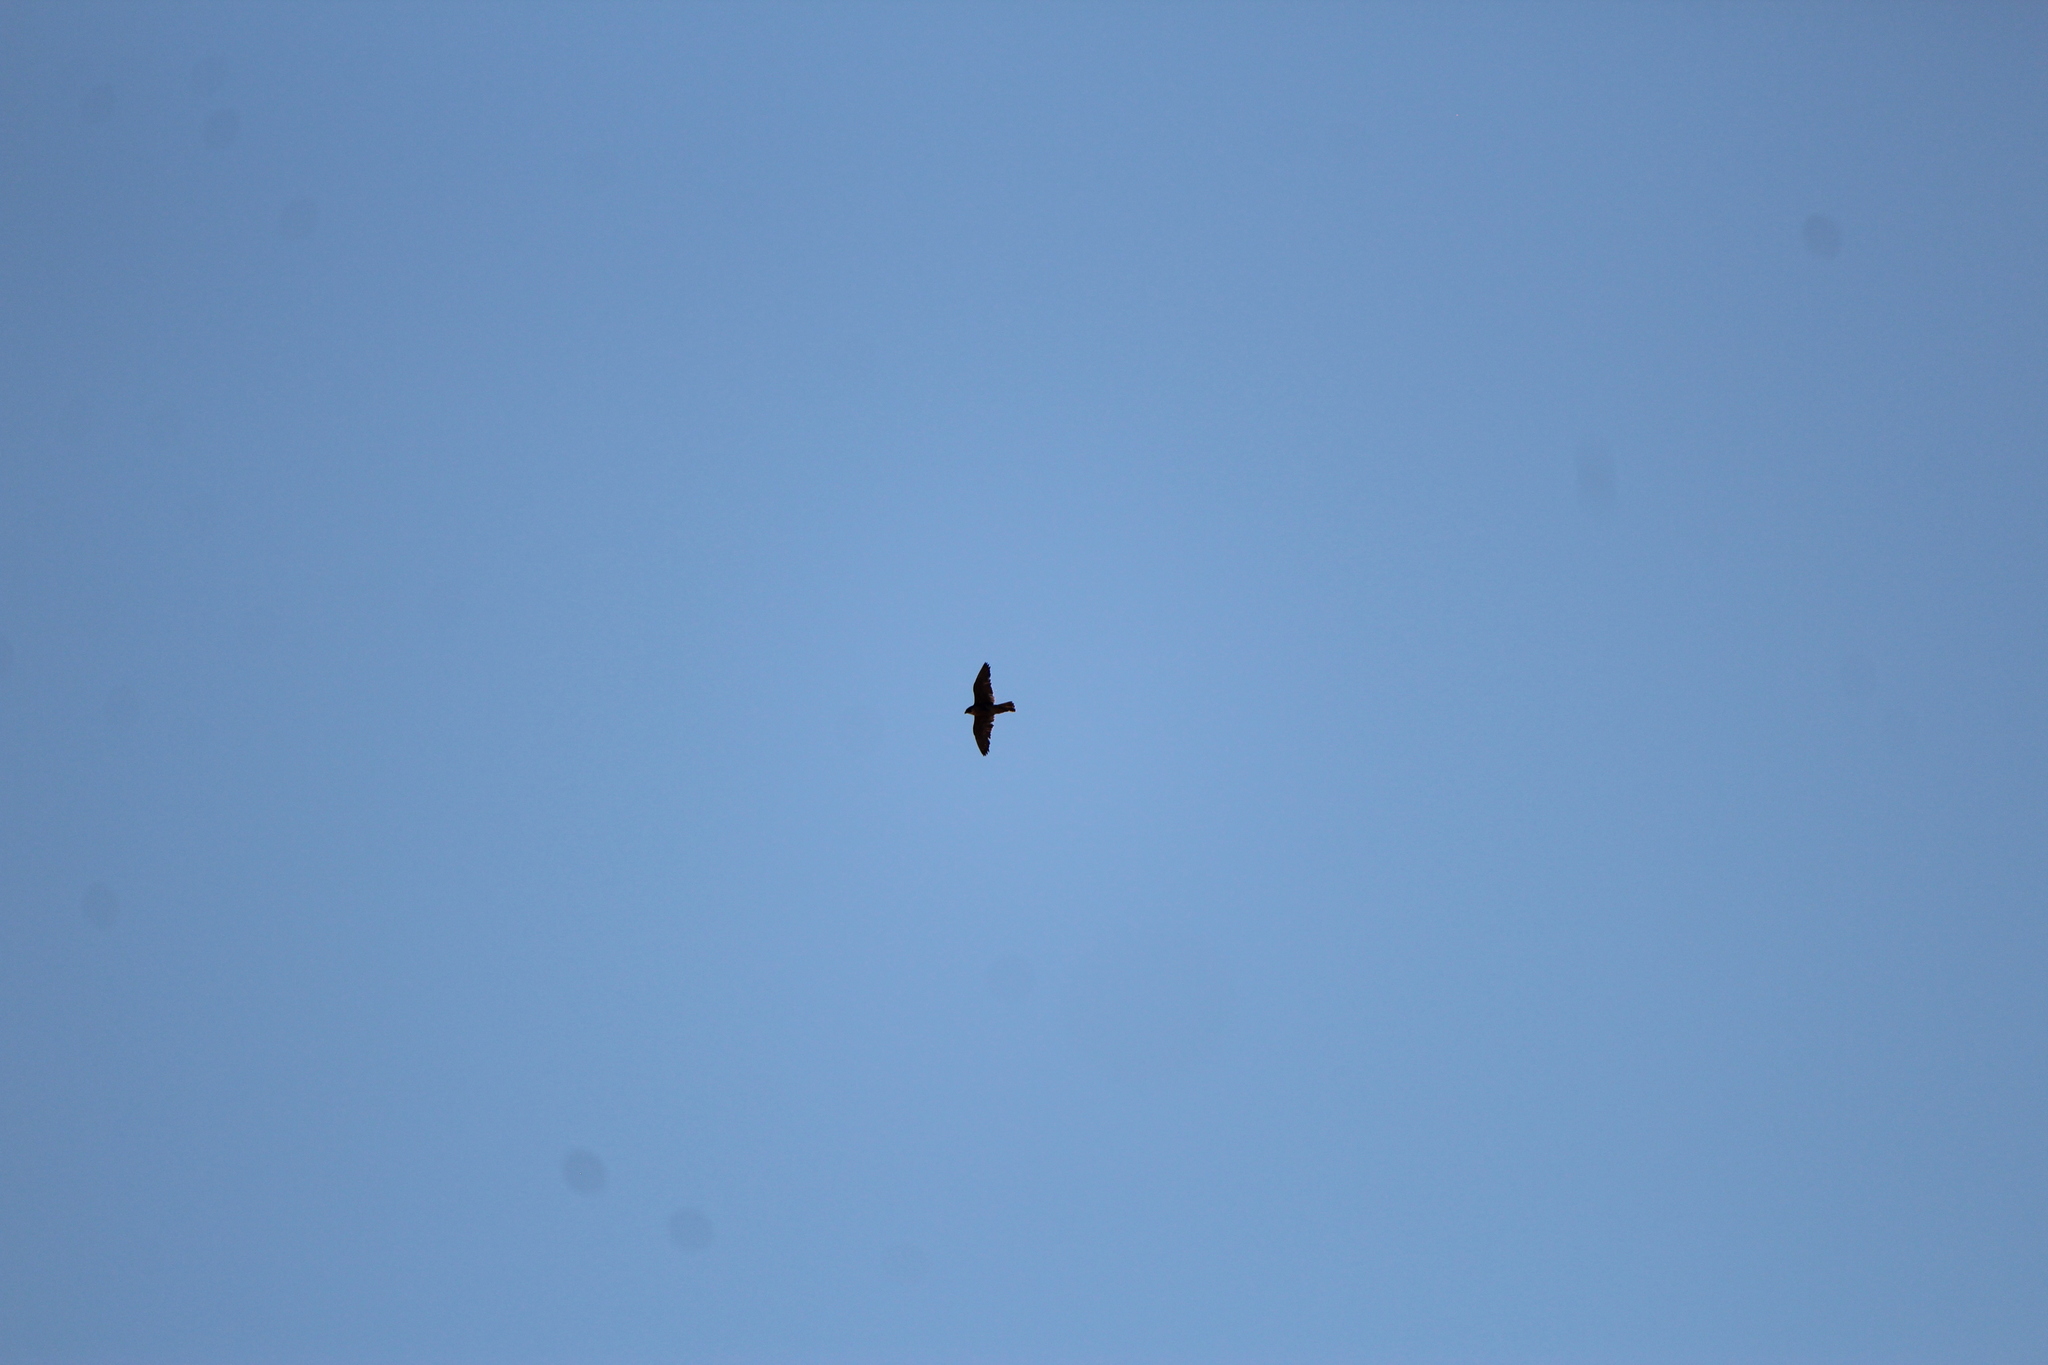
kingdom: Animalia
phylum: Chordata
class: Aves
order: Falconiformes
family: Falconidae
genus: Falco
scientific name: Falco peregrinus
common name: Peregrine falcon
